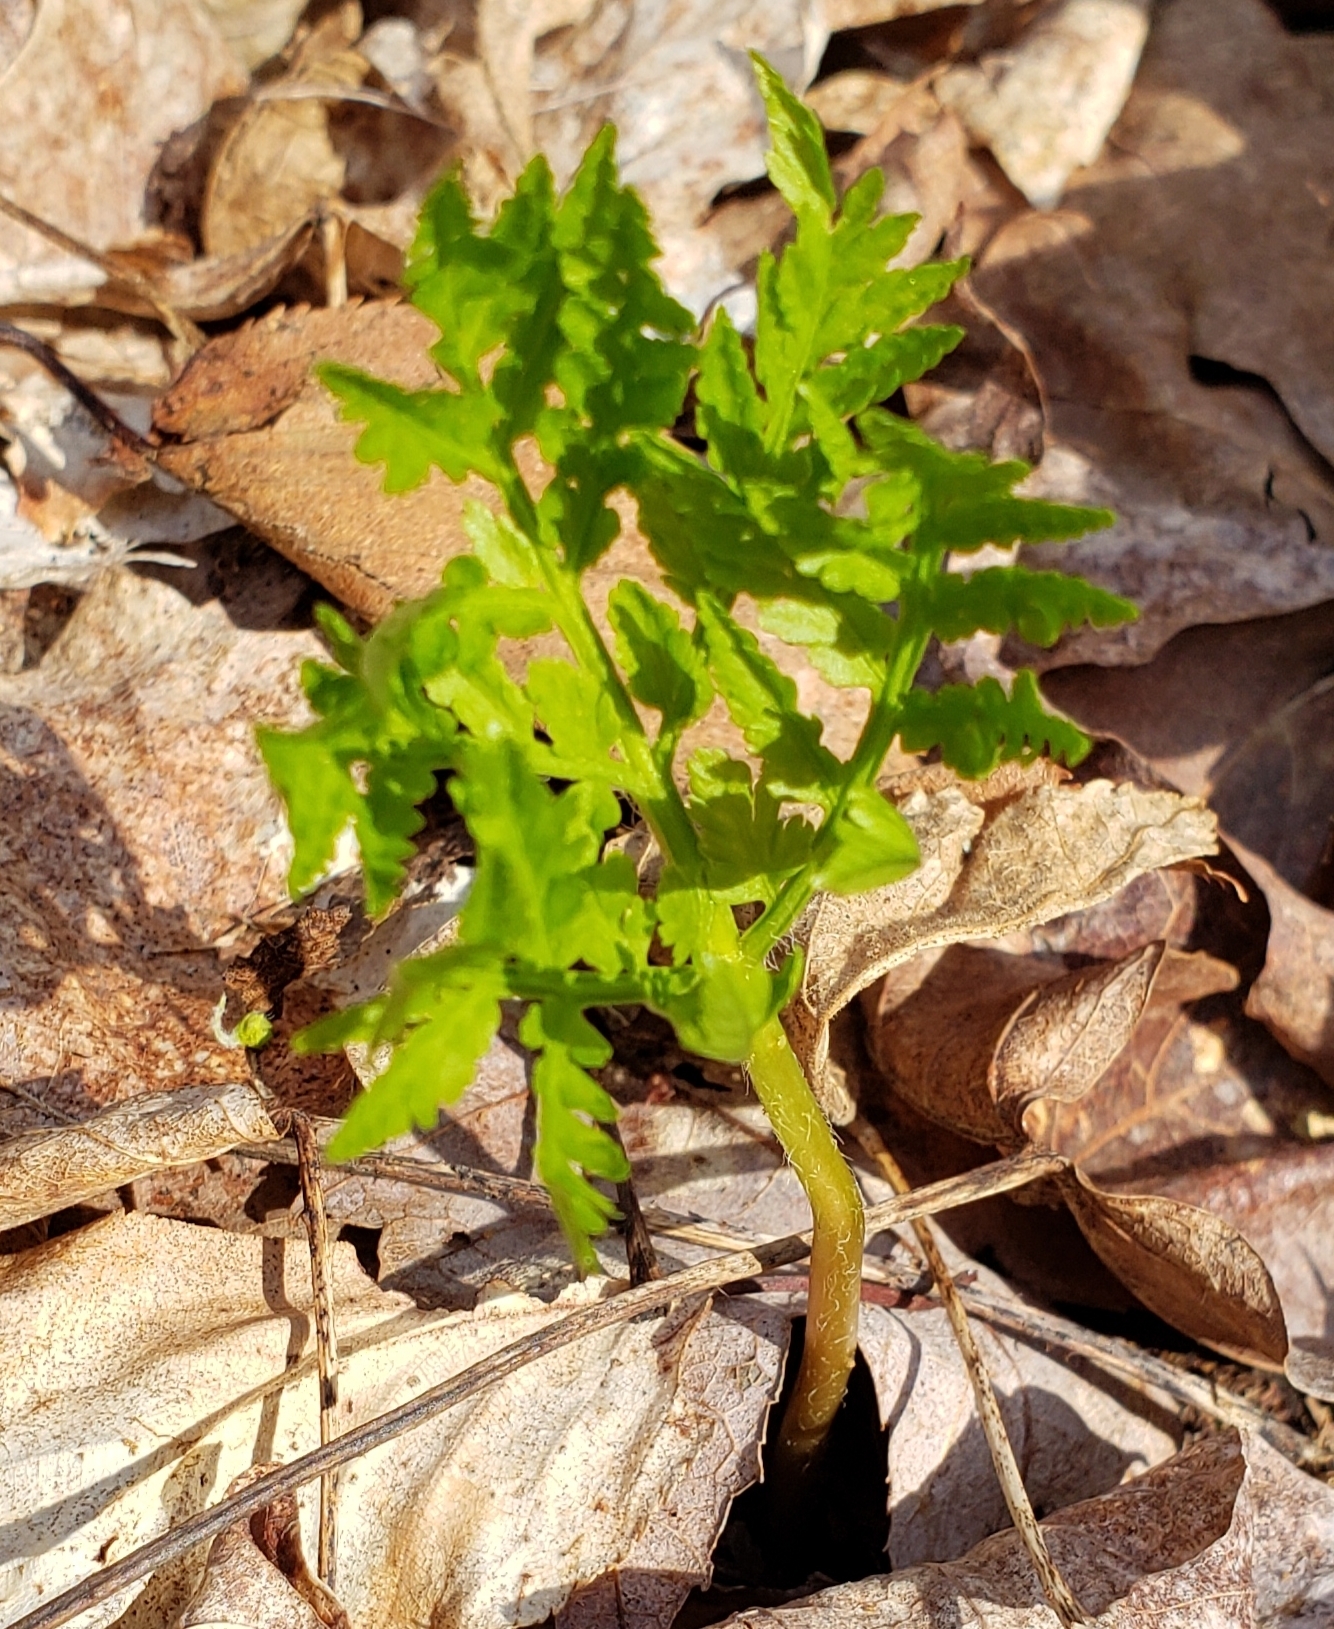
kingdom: Plantae
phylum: Tracheophyta
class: Polypodiopsida
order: Ophioglossales
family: Ophioglossaceae
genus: Botrypus
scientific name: Botrypus virginianus
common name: Common grapefern
